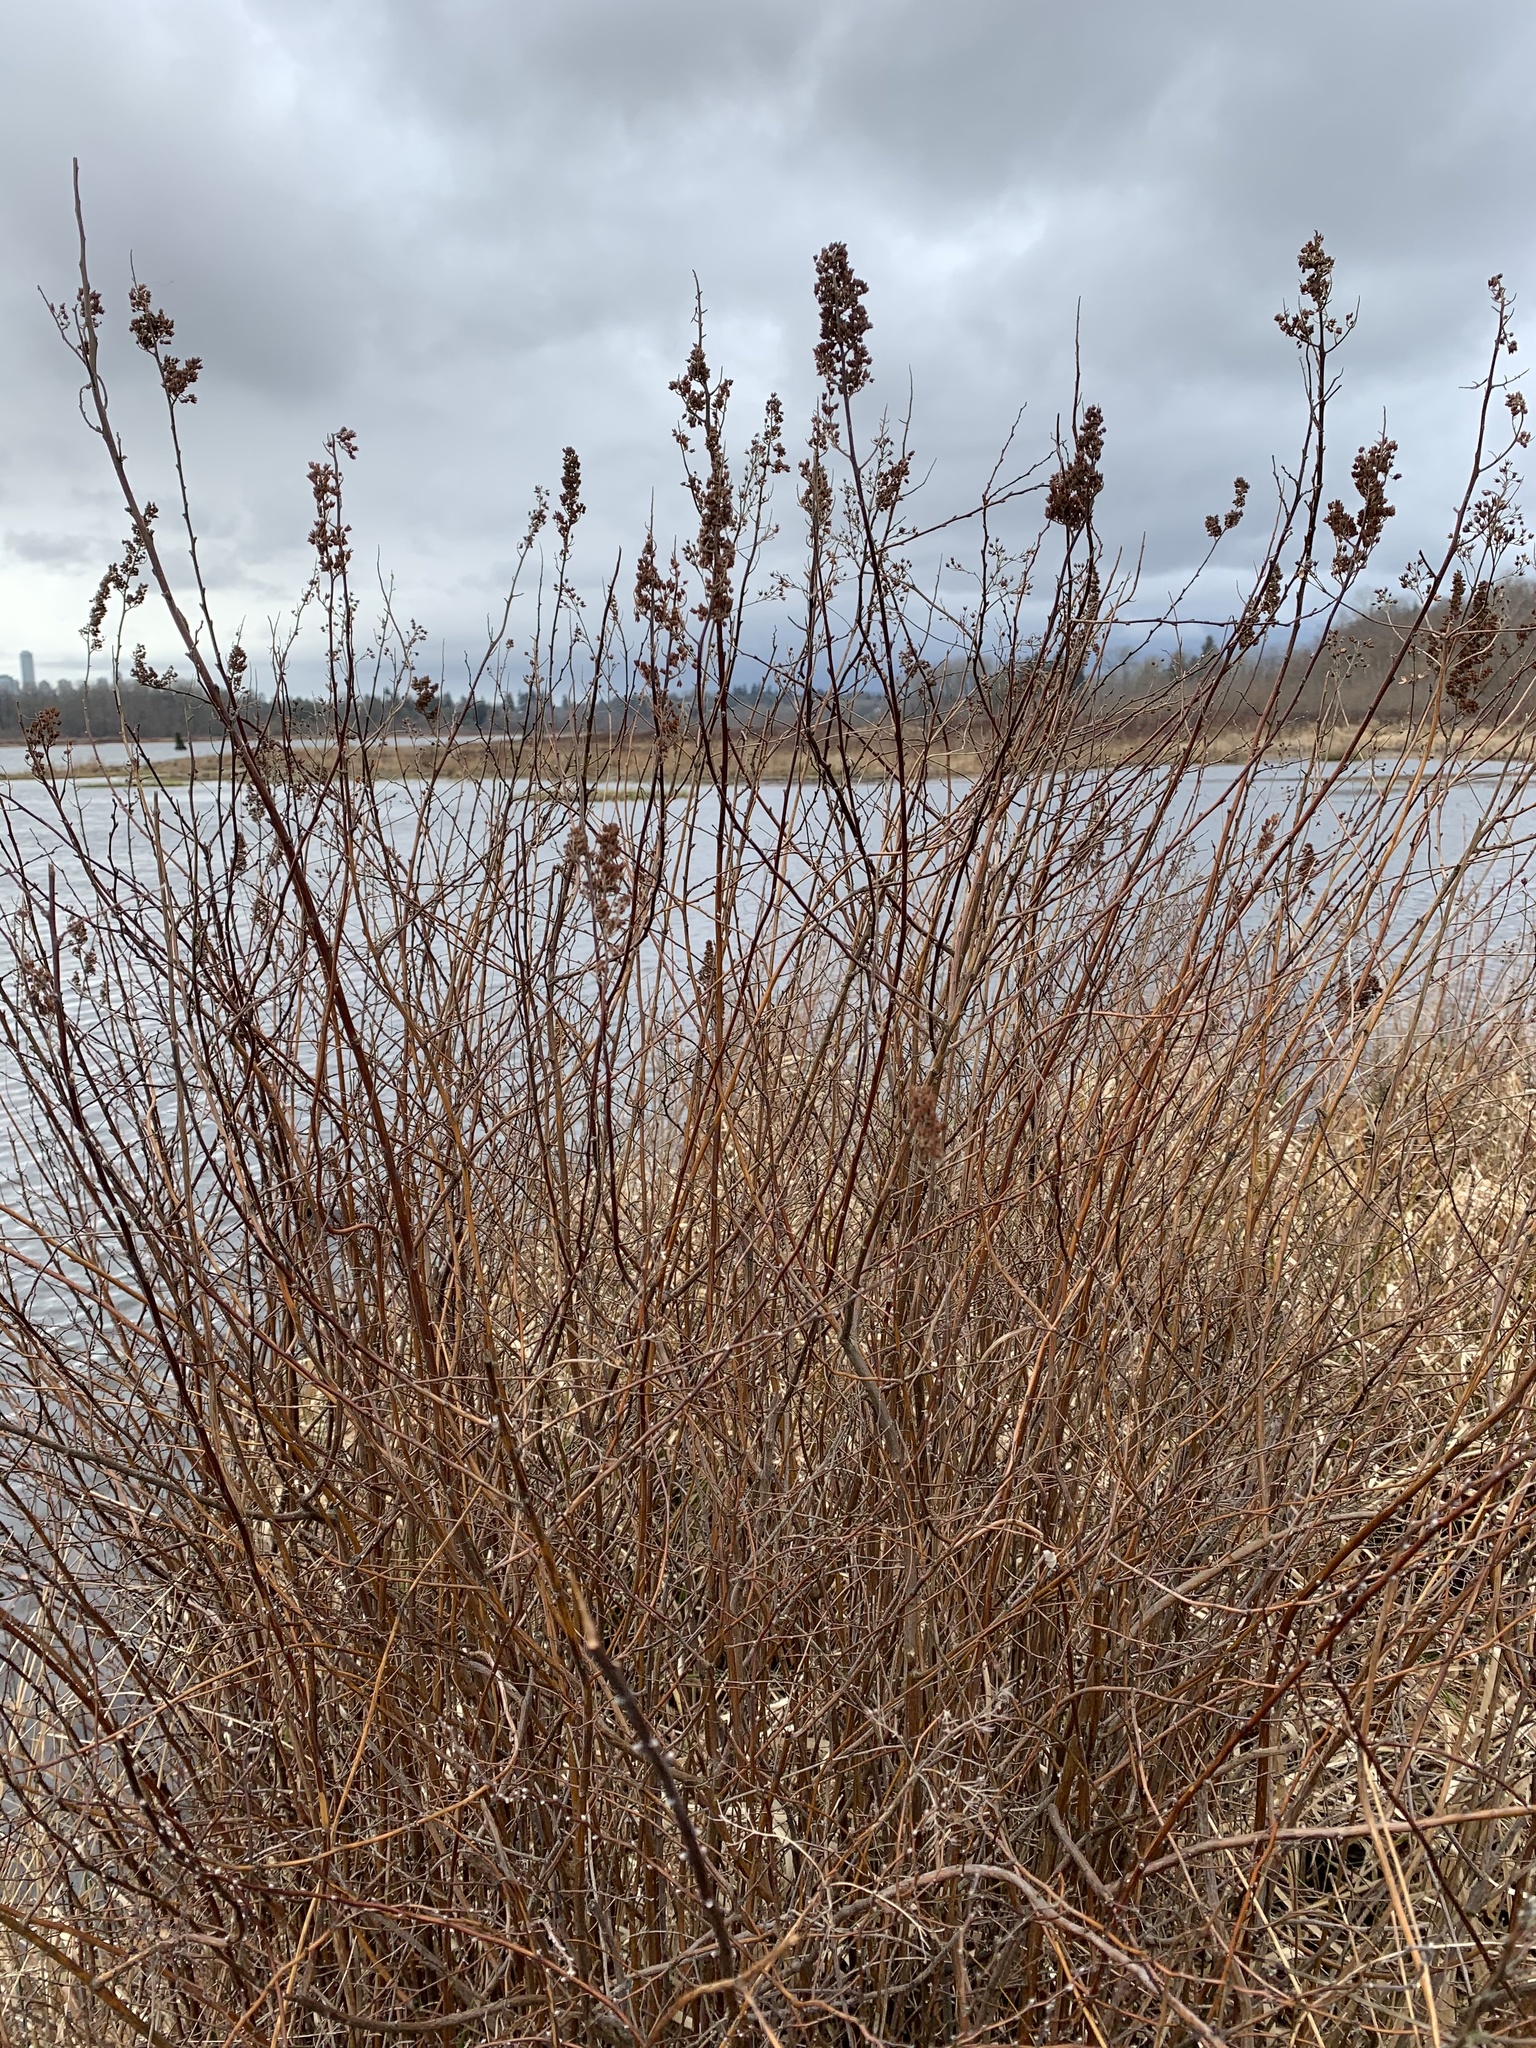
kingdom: Plantae
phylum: Tracheophyta
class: Magnoliopsida
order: Rosales
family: Rosaceae
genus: Spiraea
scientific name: Spiraea douglasii
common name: Steeplebush
